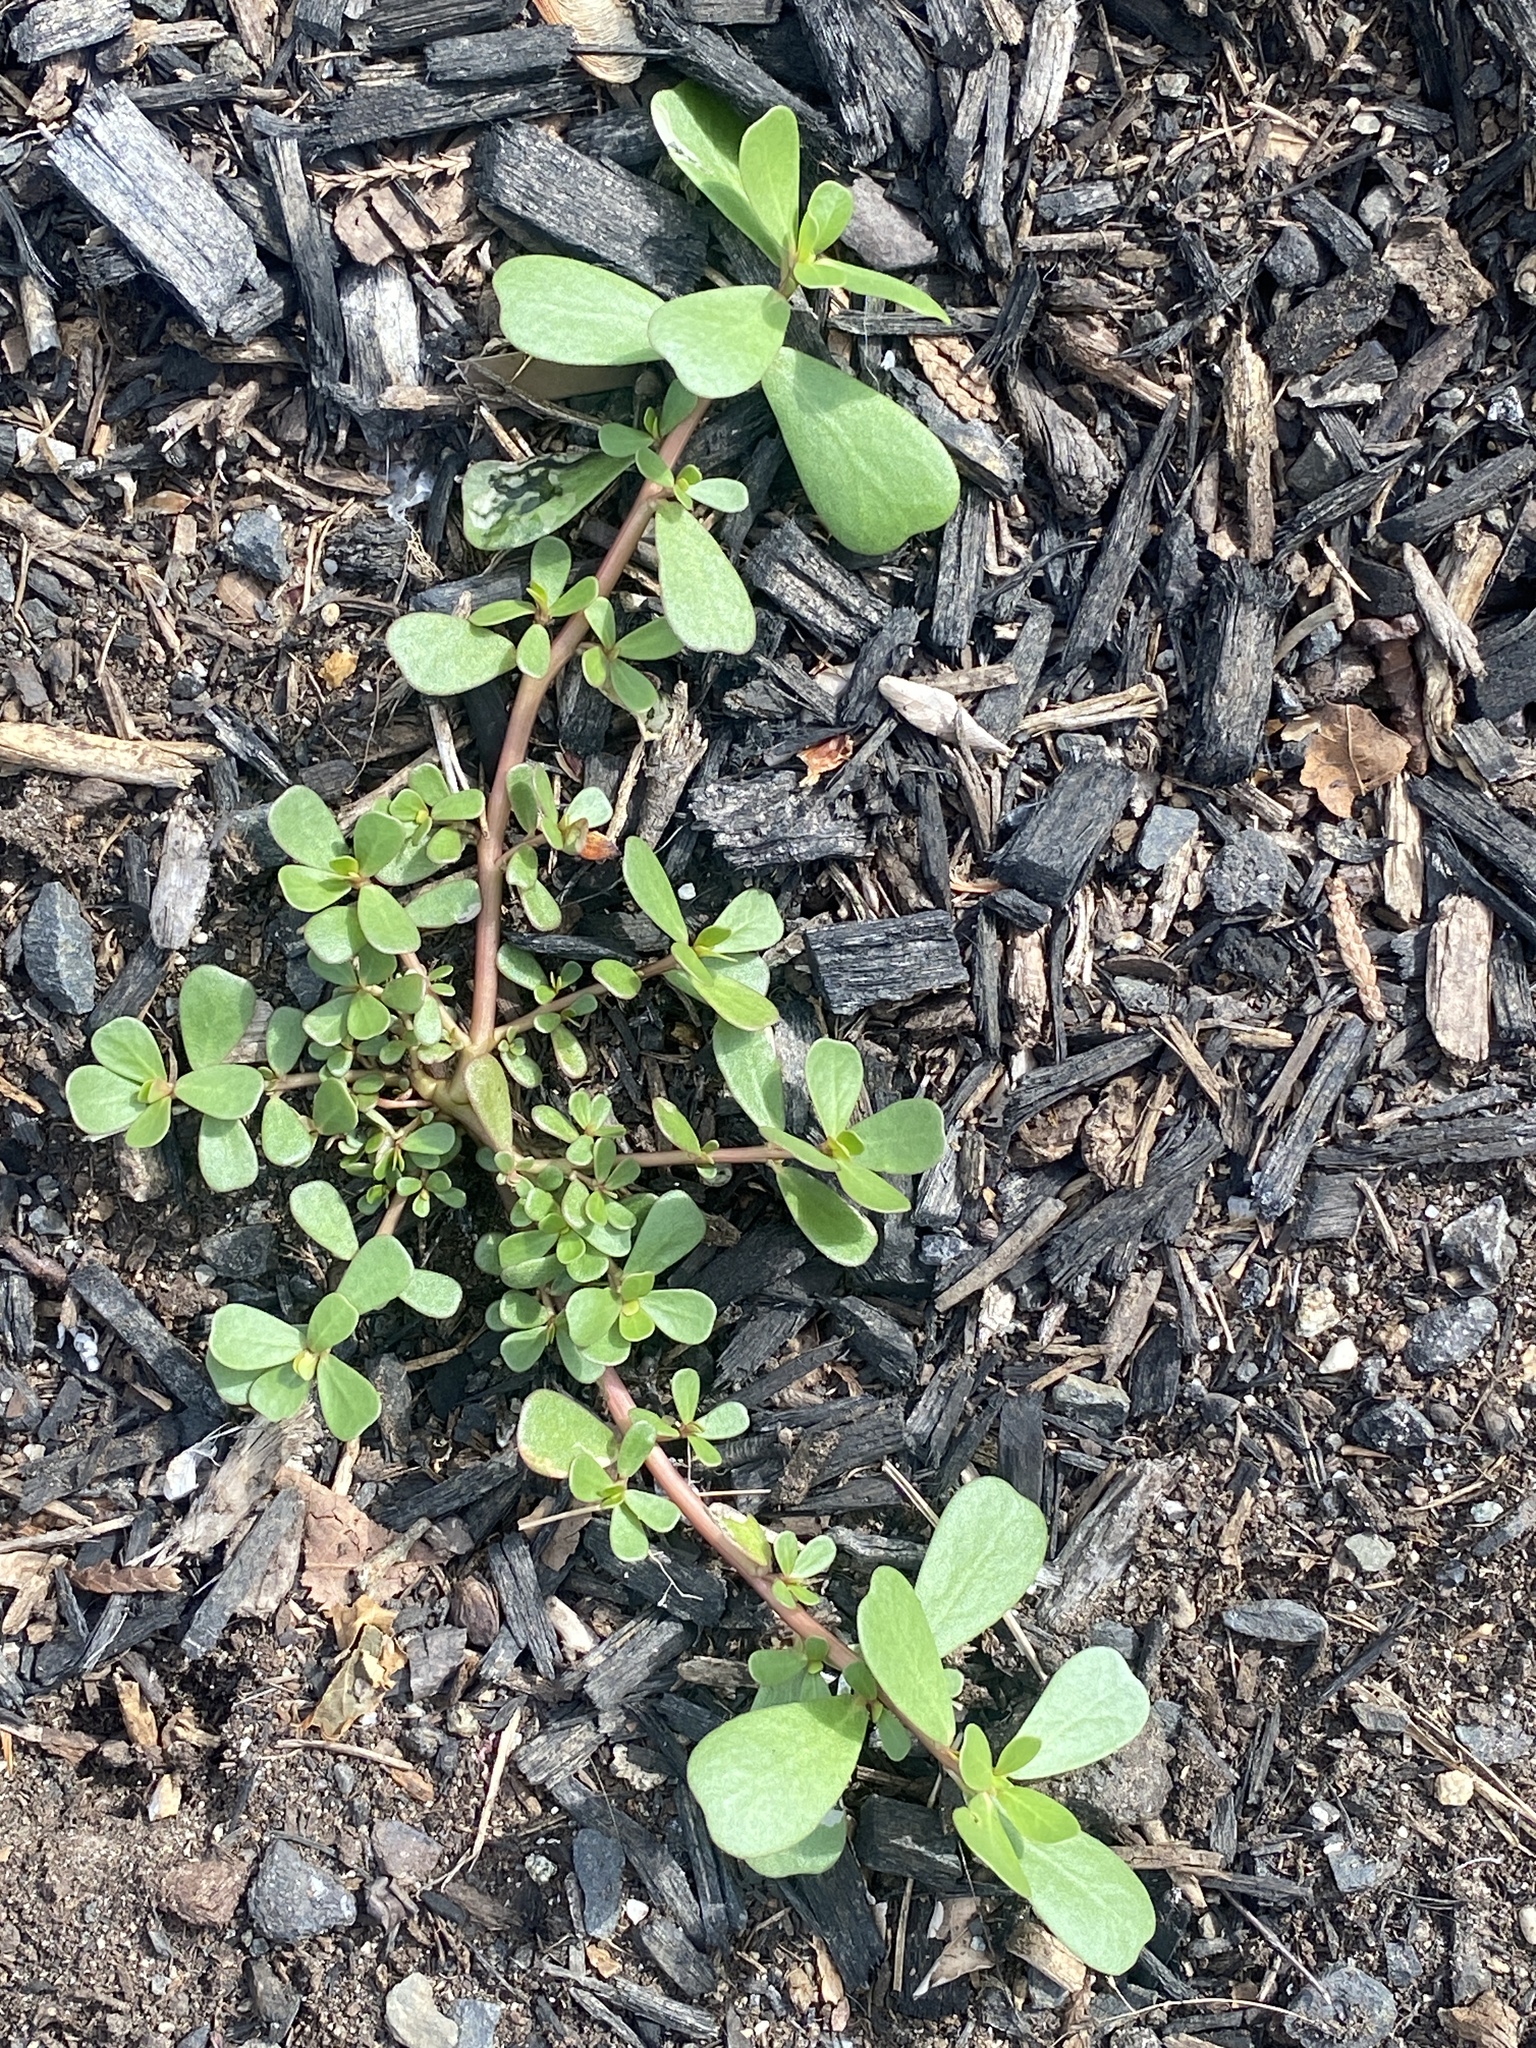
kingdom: Plantae
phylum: Tracheophyta
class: Magnoliopsida
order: Caryophyllales
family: Portulacaceae
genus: Portulaca
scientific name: Portulaca oleracea
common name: Common purslane
